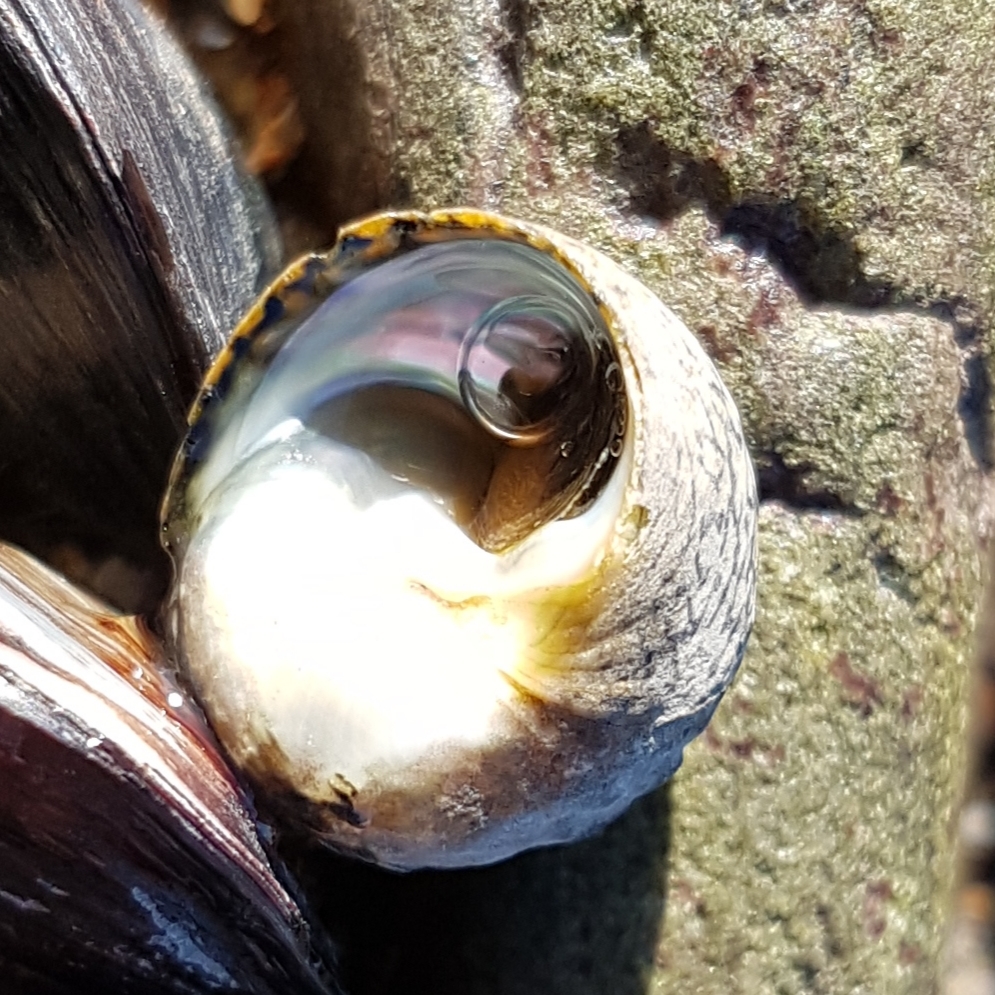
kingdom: Animalia
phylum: Mollusca
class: Gastropoda
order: Trochida
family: Trochidae
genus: Phorcus
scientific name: Phorcus lineatus
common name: Toothed top shell
